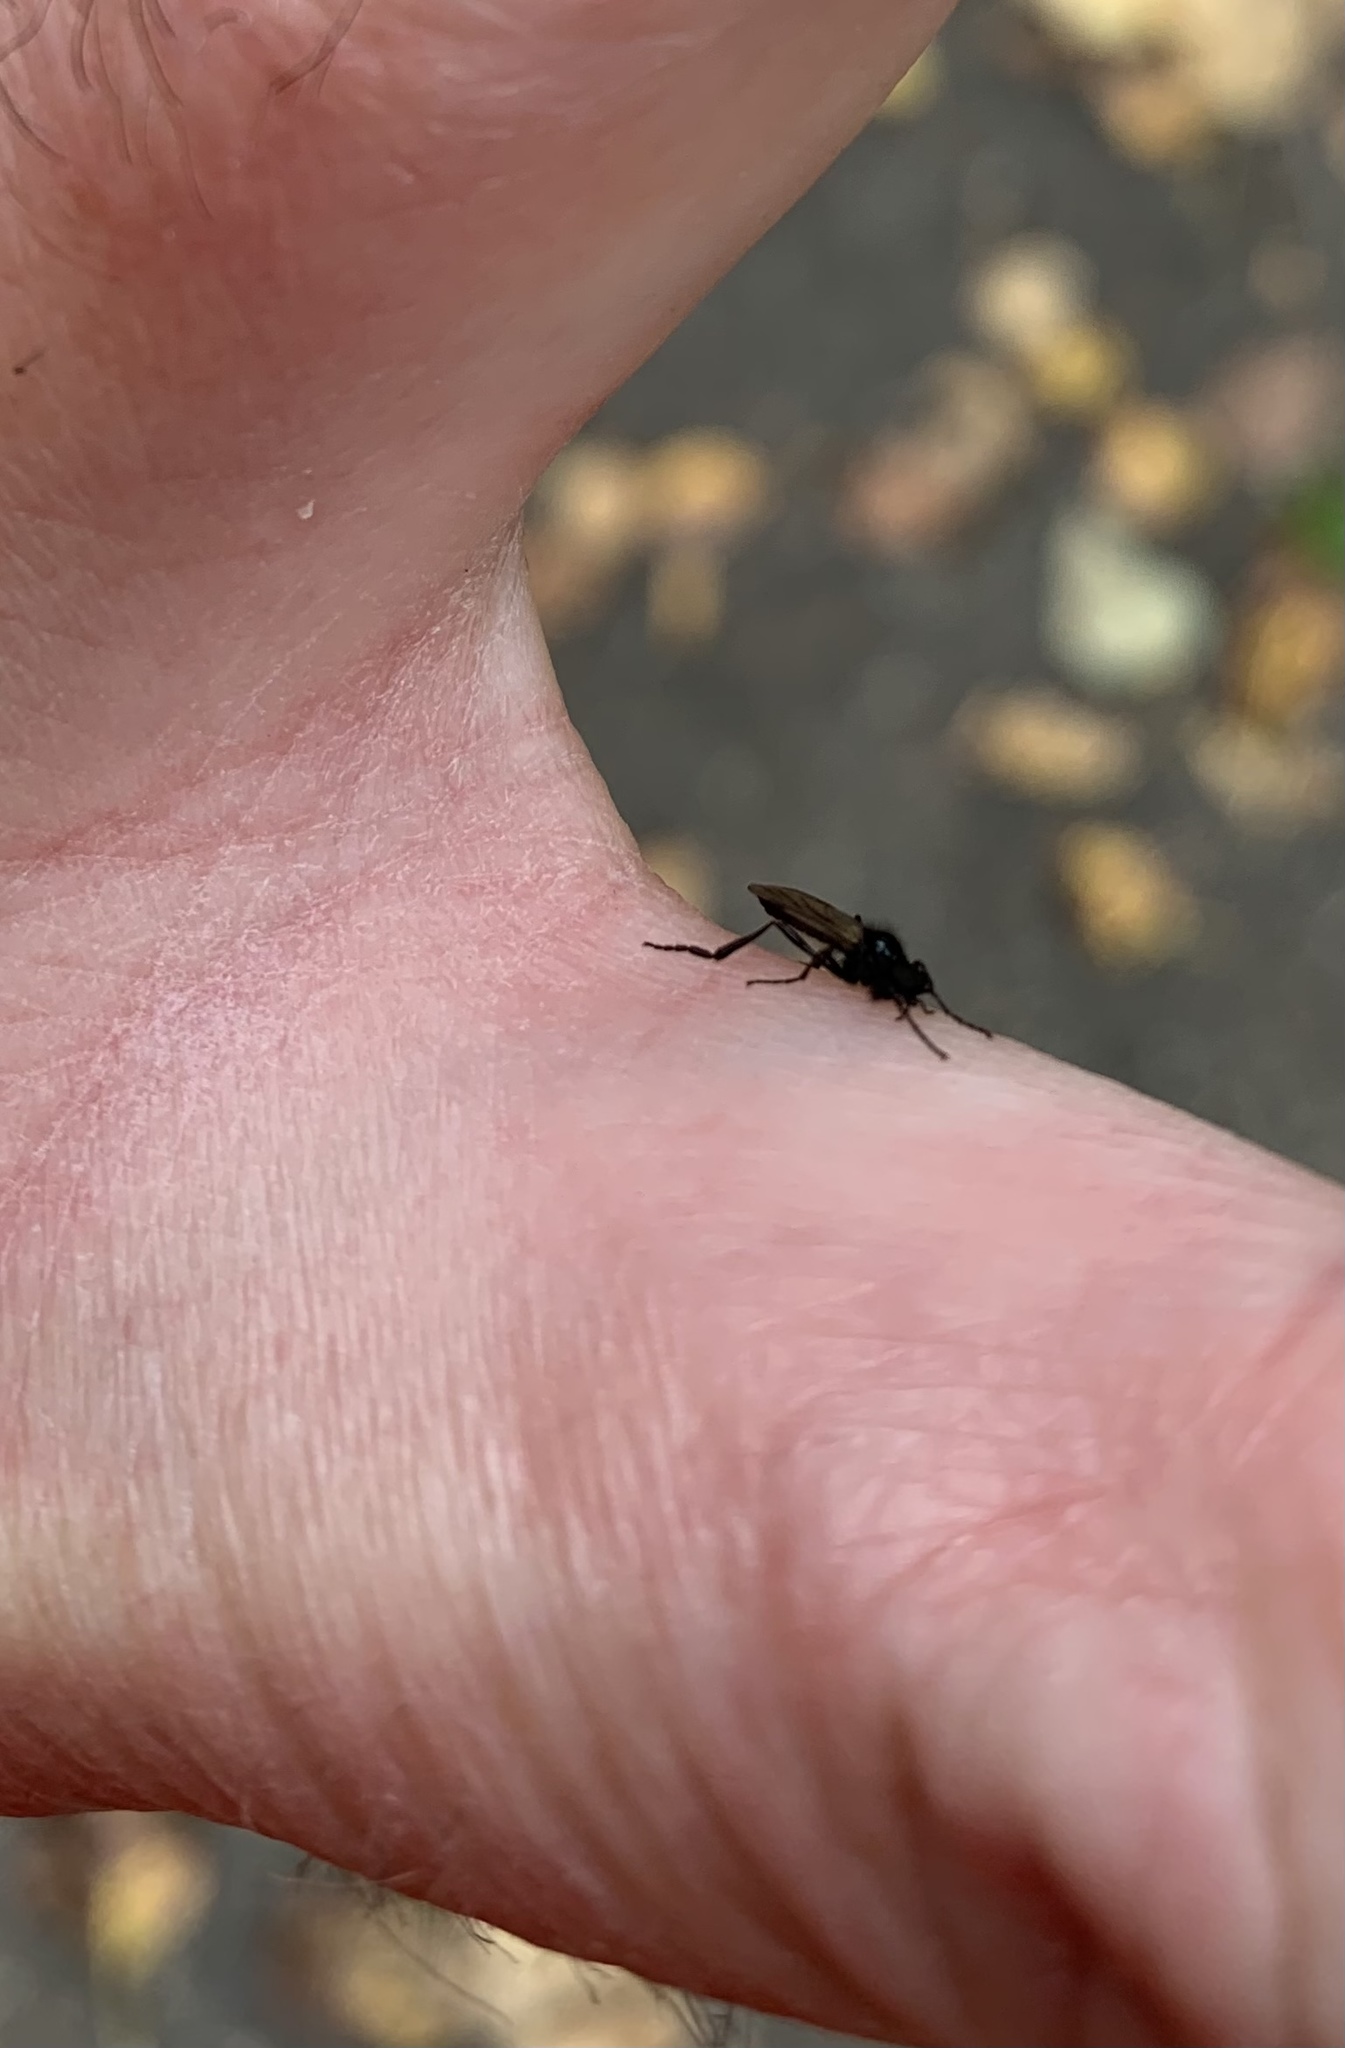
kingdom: Animalia
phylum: Arthropoda
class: Insecta
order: Diptera
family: Bibionidae
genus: Bibio
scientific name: Bibio slossonae
